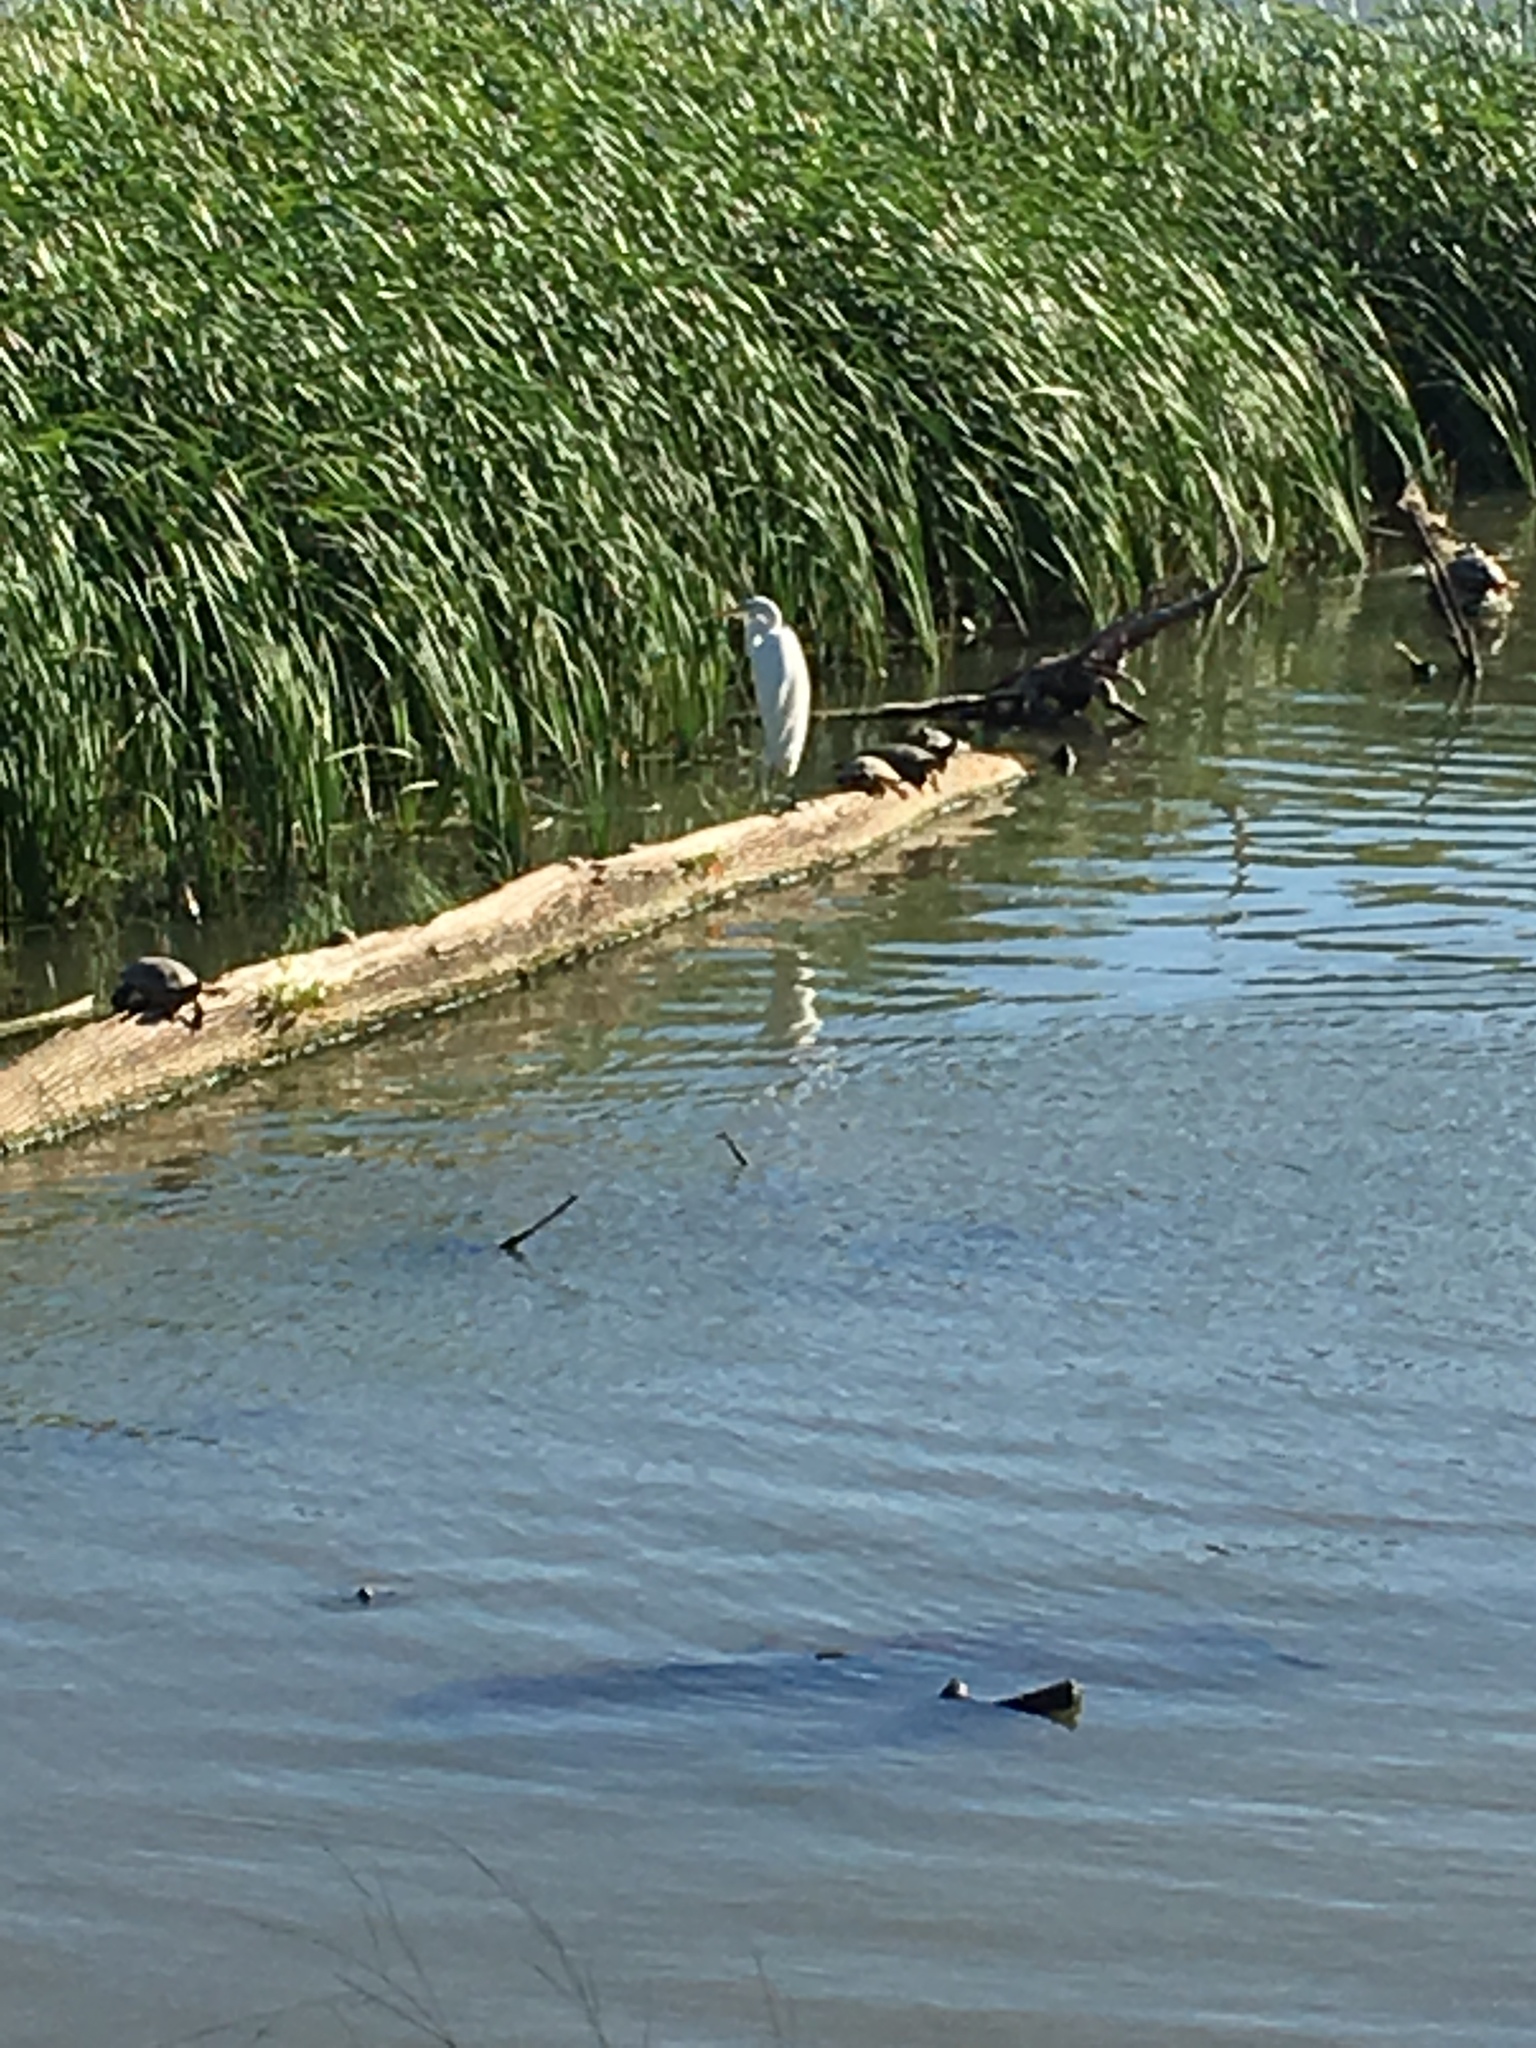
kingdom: Animalia
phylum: Chordata
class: Aves
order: Pelecaniformes
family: Ardeidae
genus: Ardea
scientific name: Ardea alba
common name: Great egret
